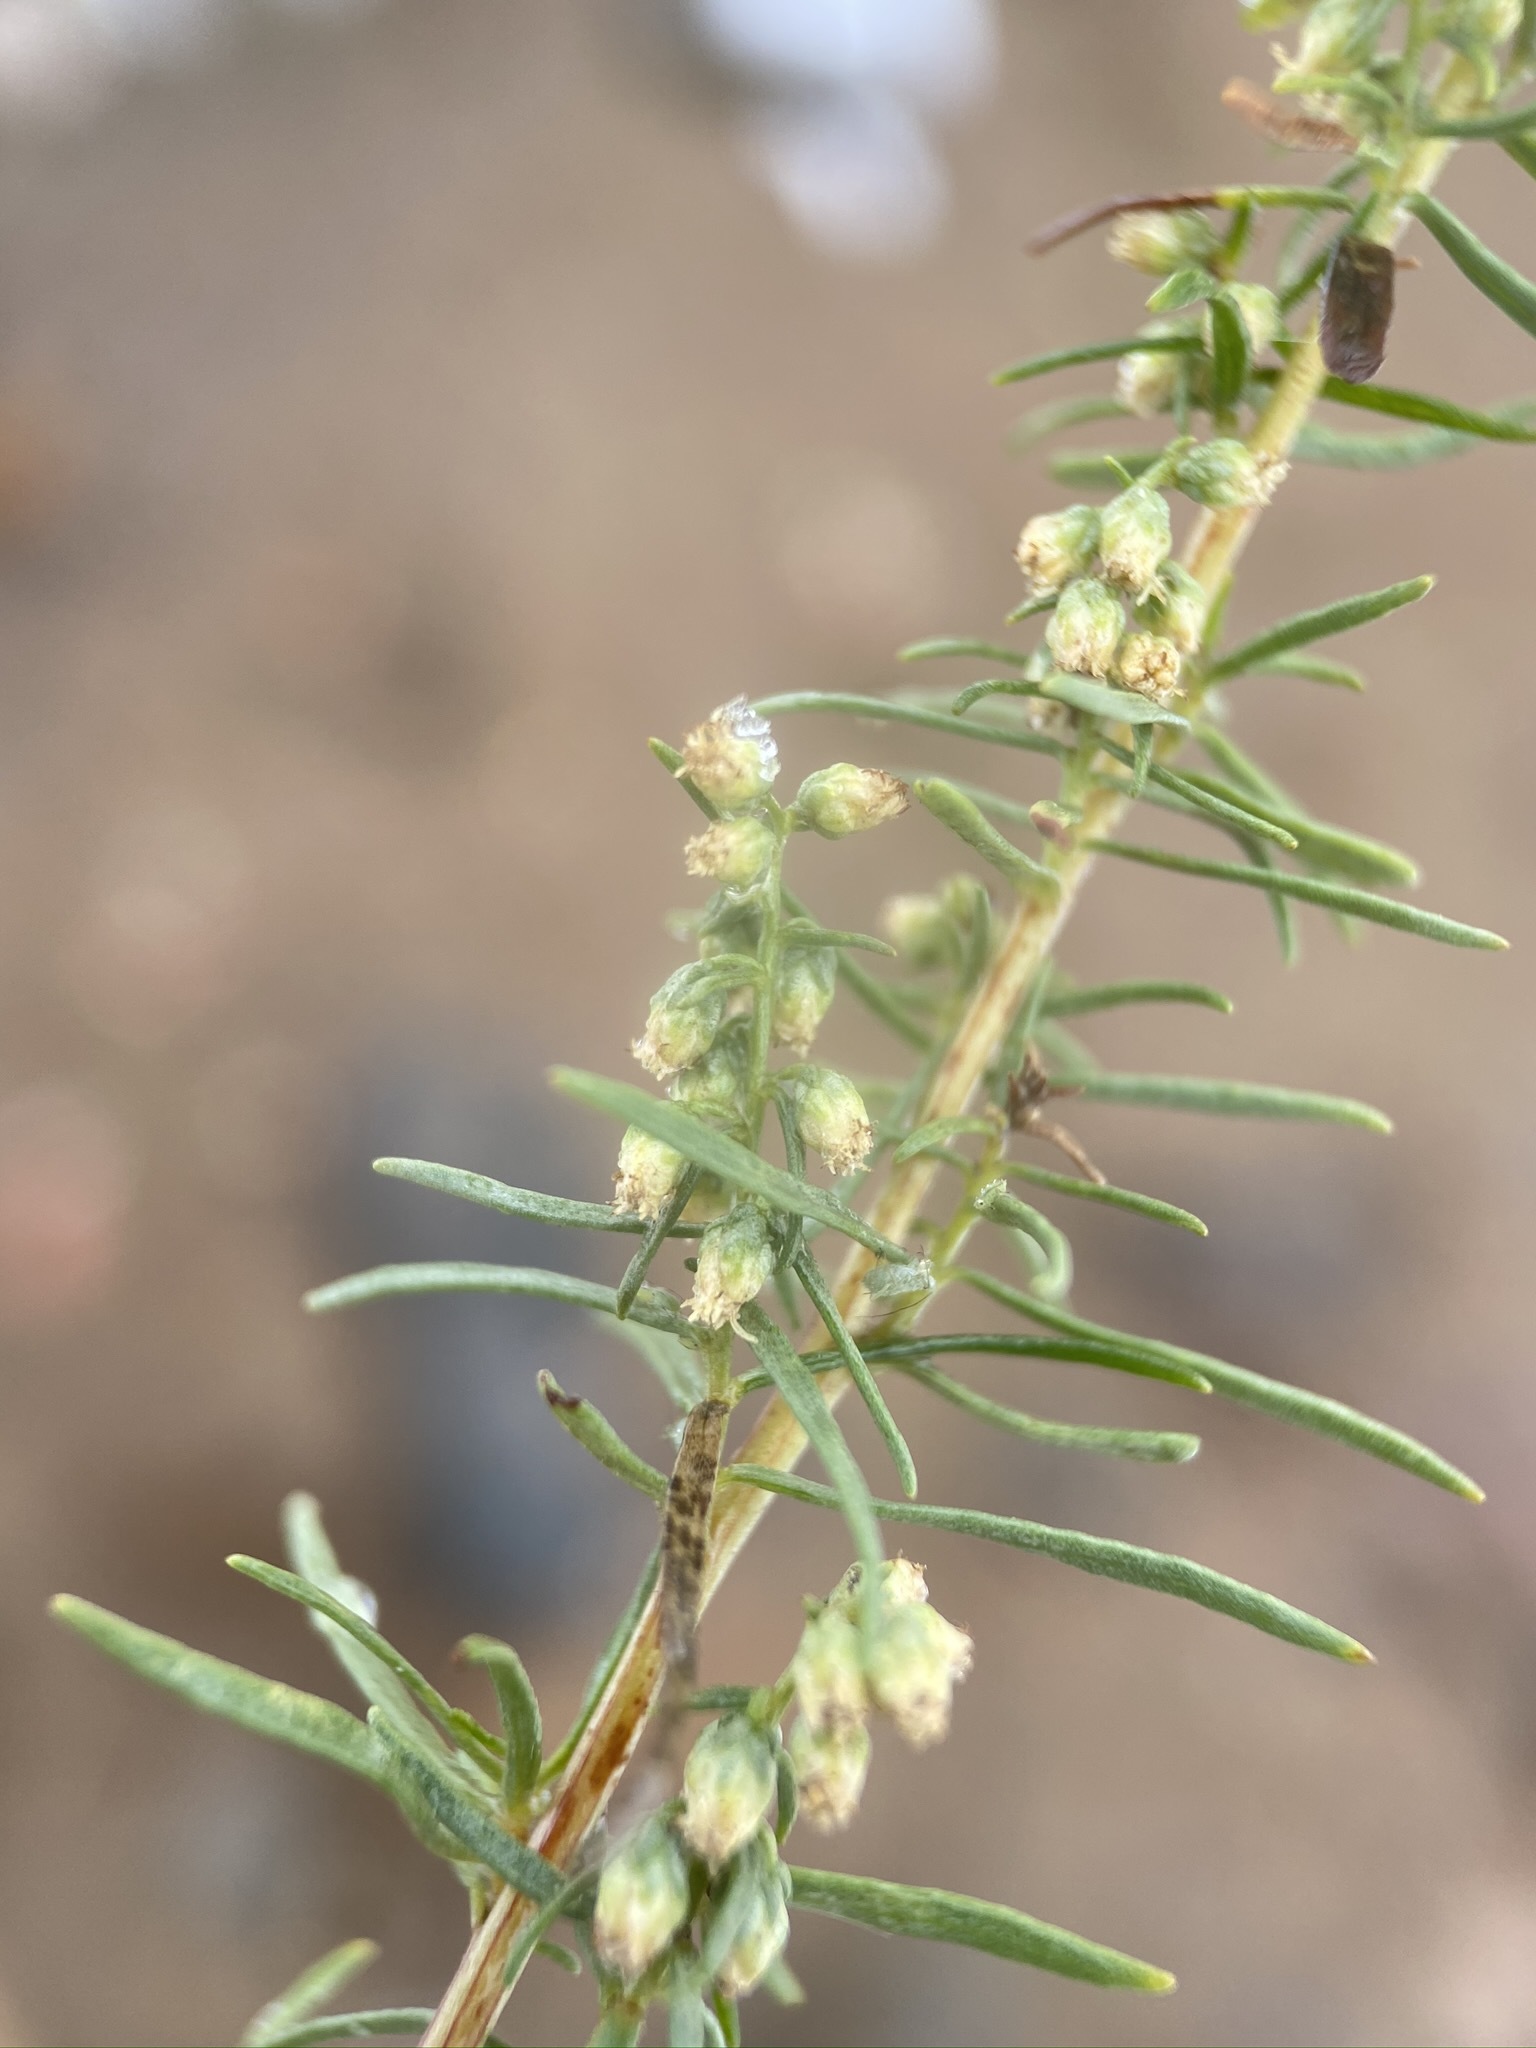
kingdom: Plantae
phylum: Tracheophyta
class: Magnoliopsida
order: Asterales
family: Asteraceae
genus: Artemisia
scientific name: Artemisia dracunculus
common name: Tarragon
